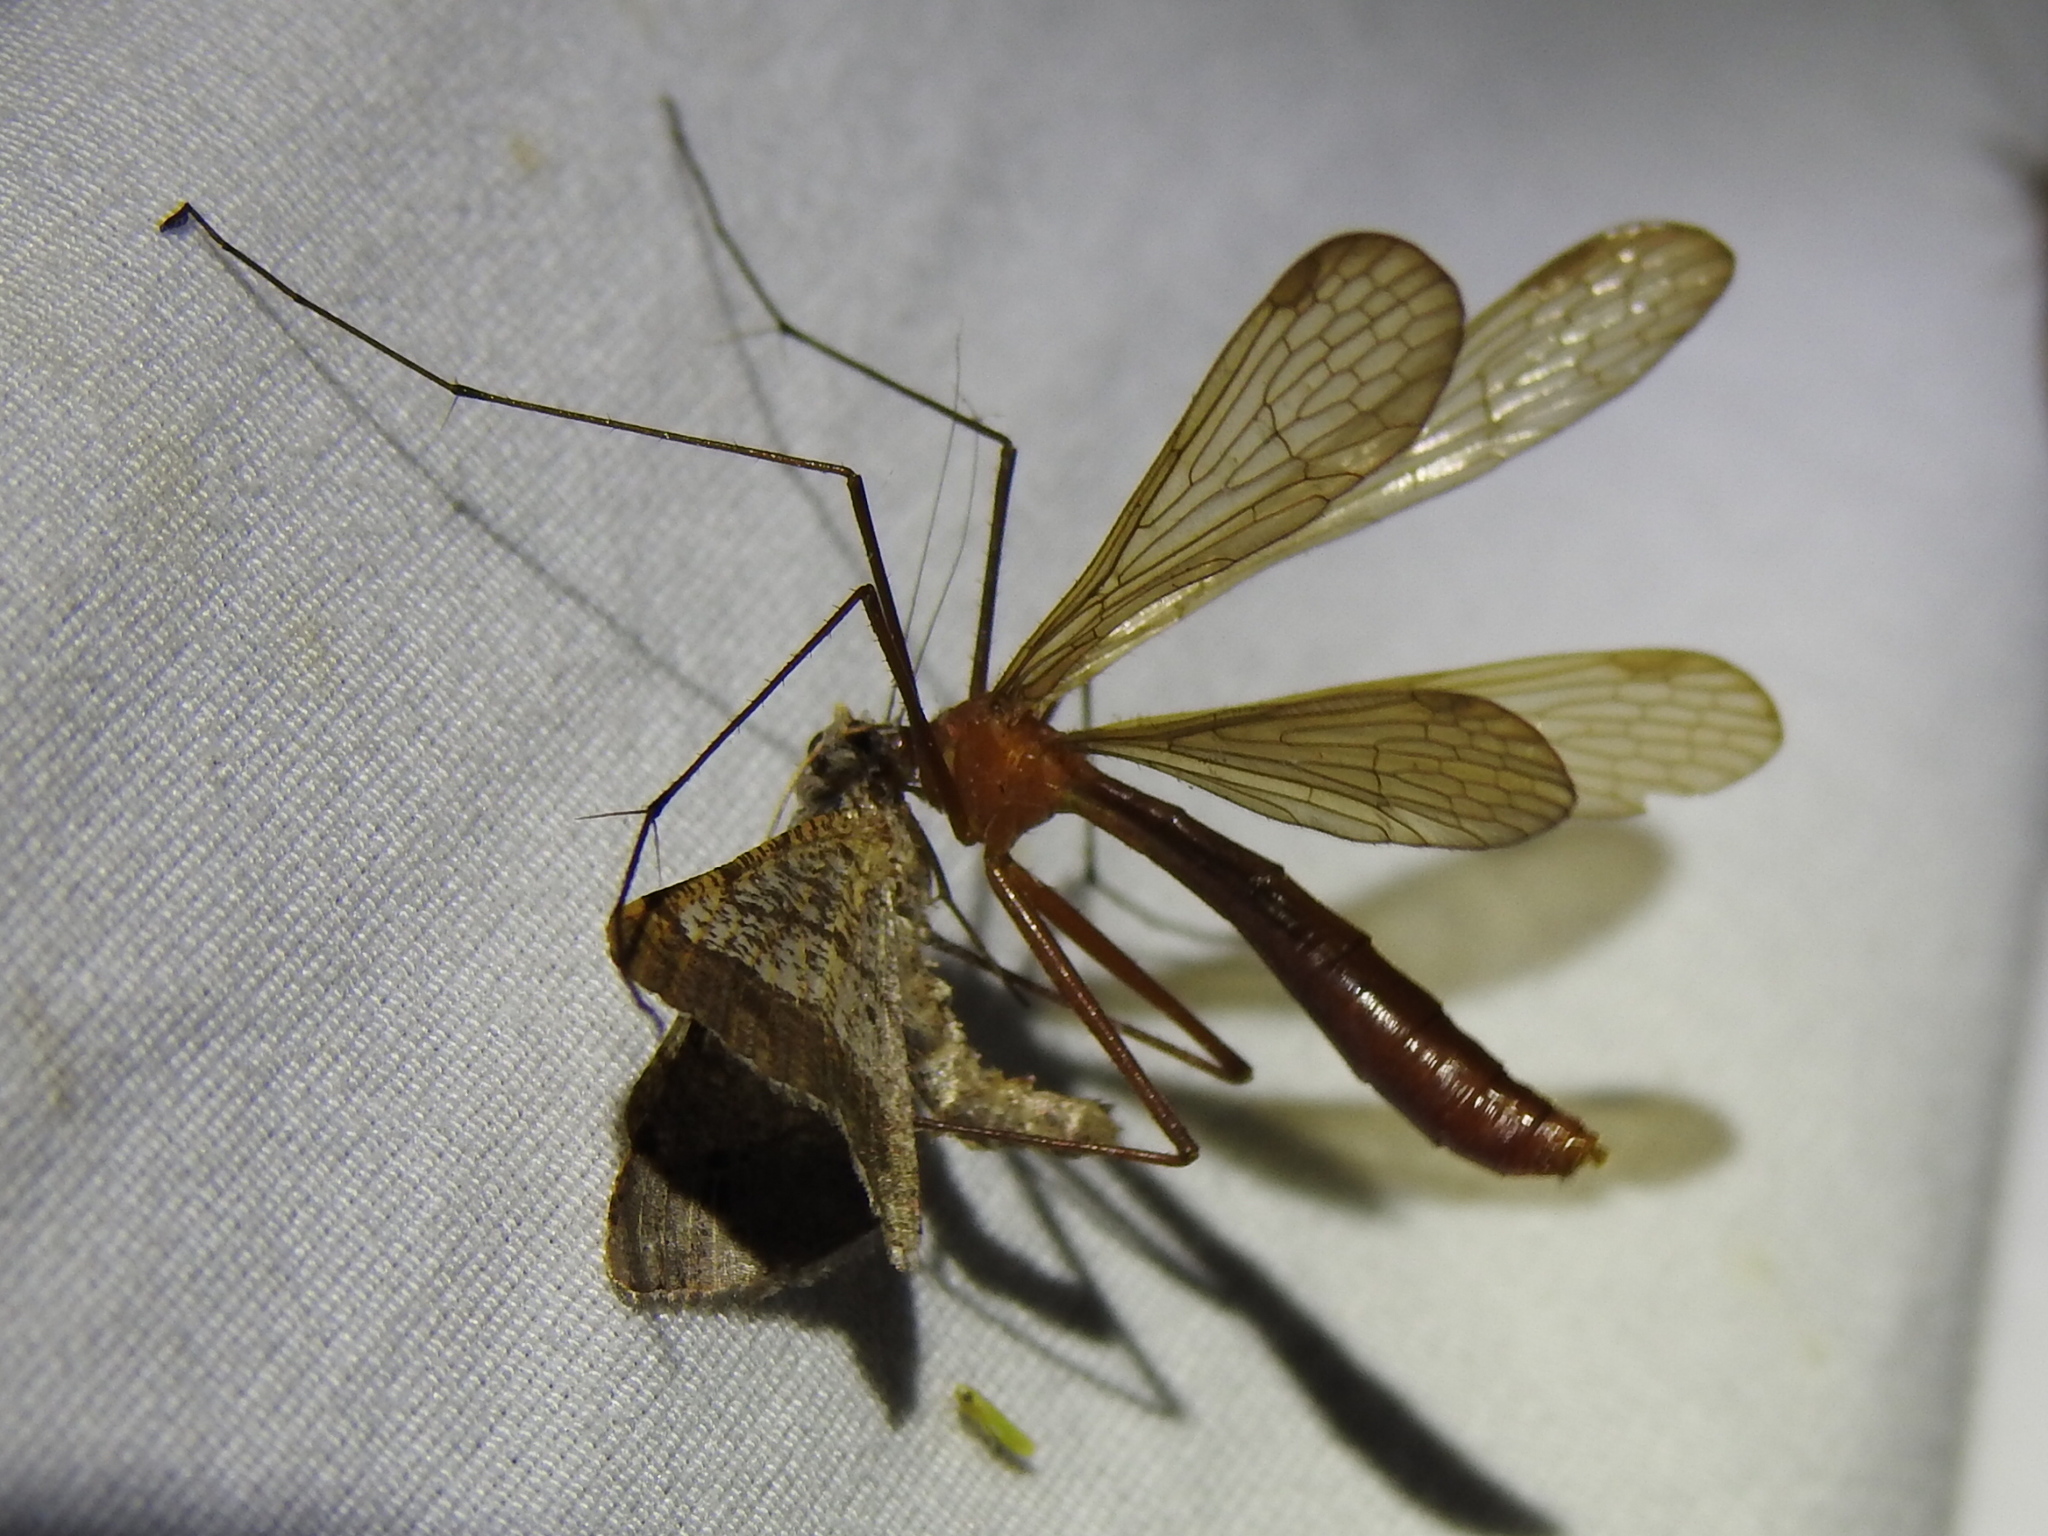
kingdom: Animalia
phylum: Arthropoda
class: Insecta
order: Mecoptera
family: Bittacidae
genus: Bittacus
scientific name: Bittacus texanus
